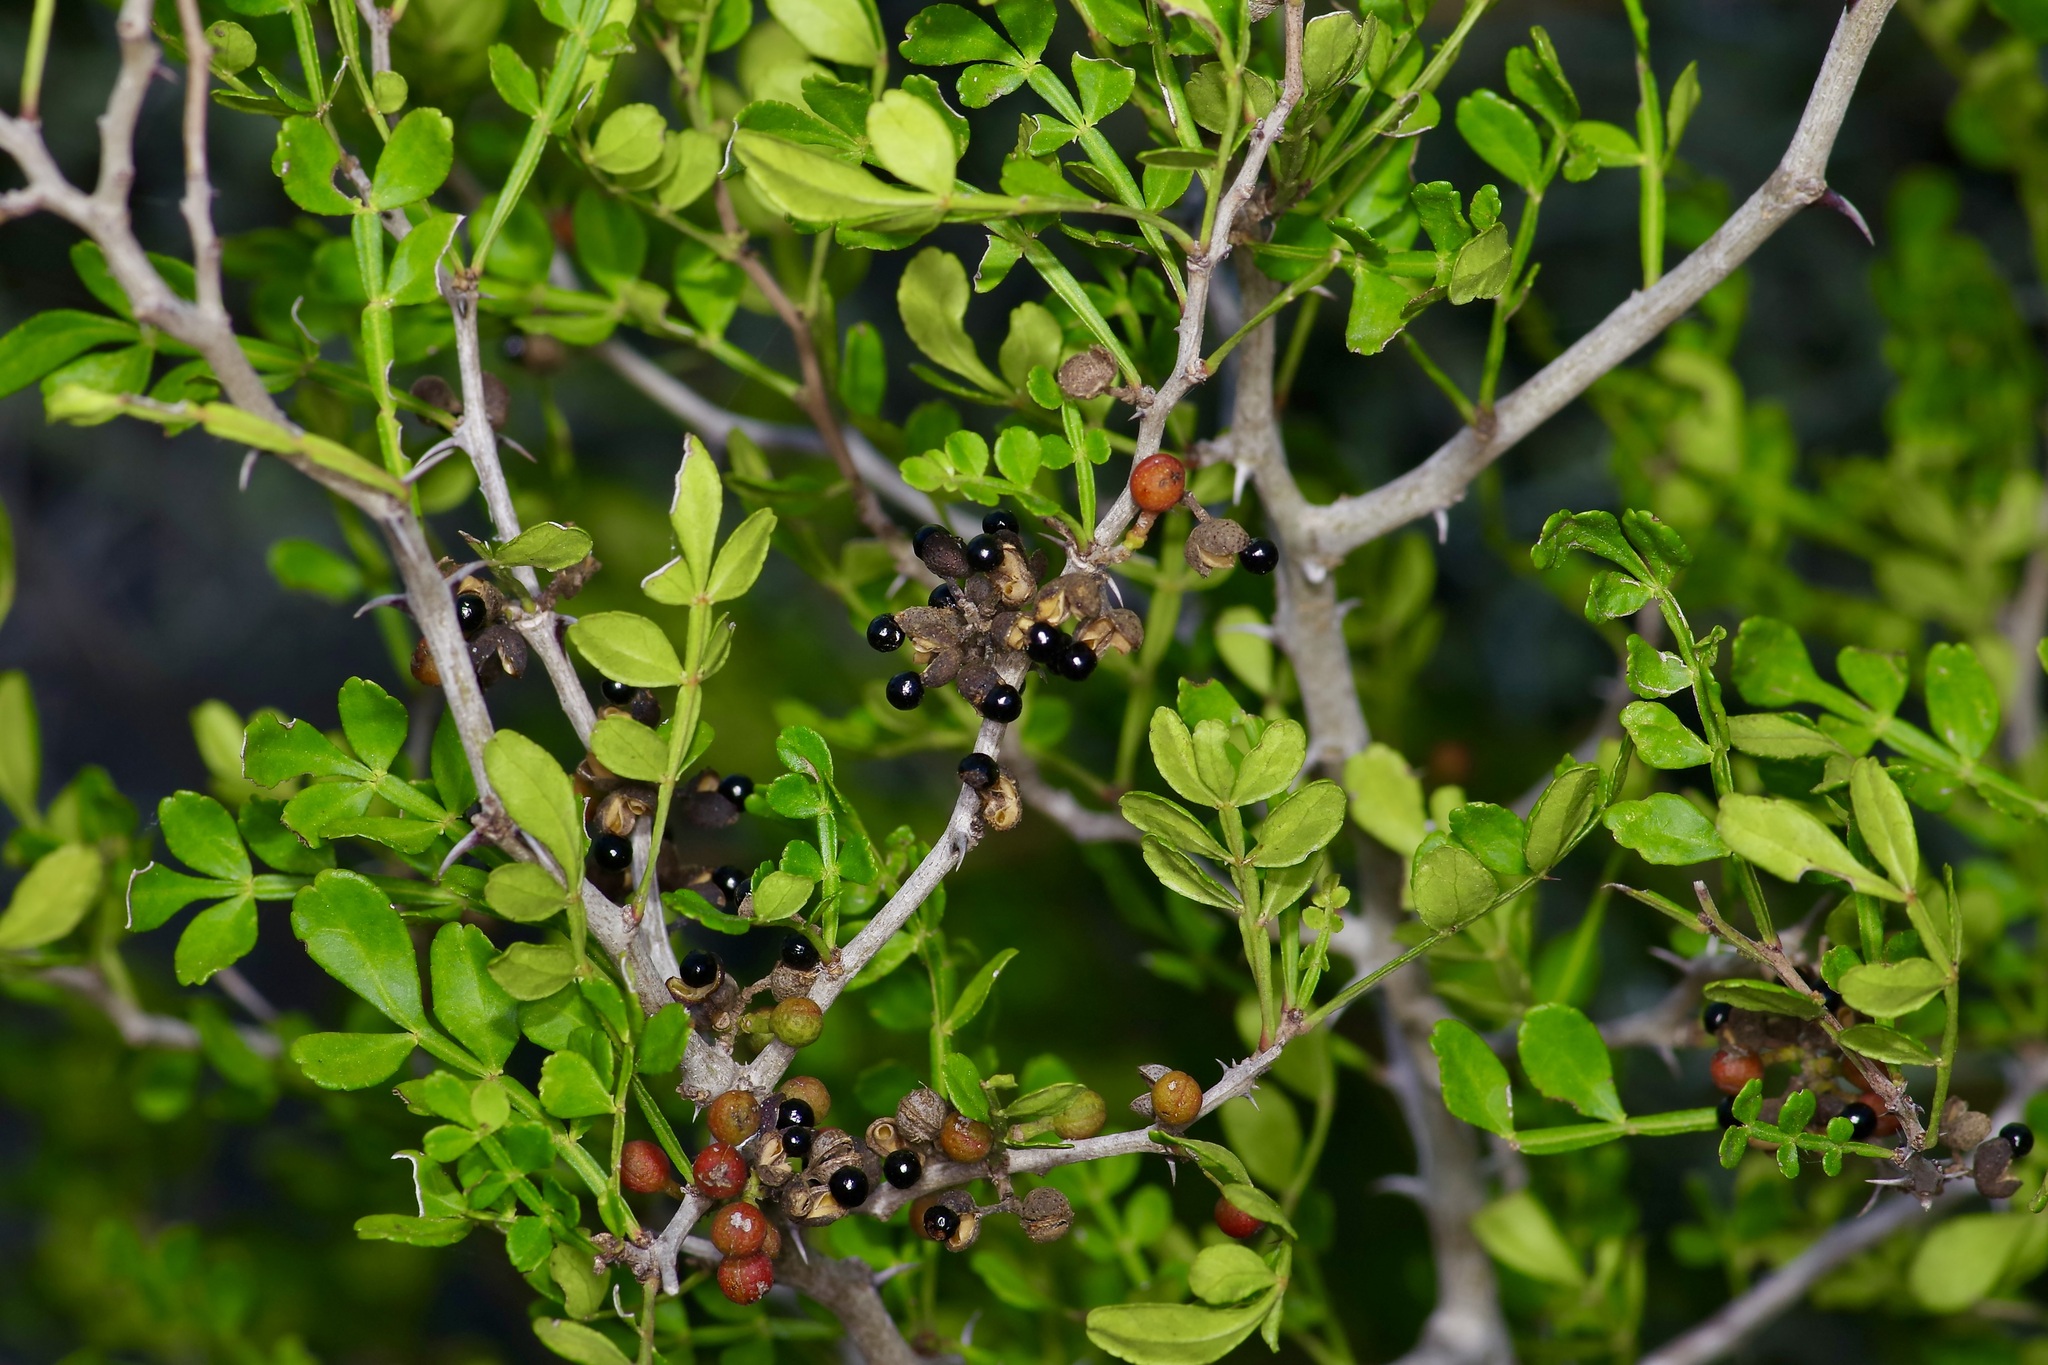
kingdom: Plantae
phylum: Tracheophyta
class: Magnoliopsida
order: Sapindales
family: Rutaceae
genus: Zanthoxylum
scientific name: Zanthoxylum fagara
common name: Lime prickly-ash
